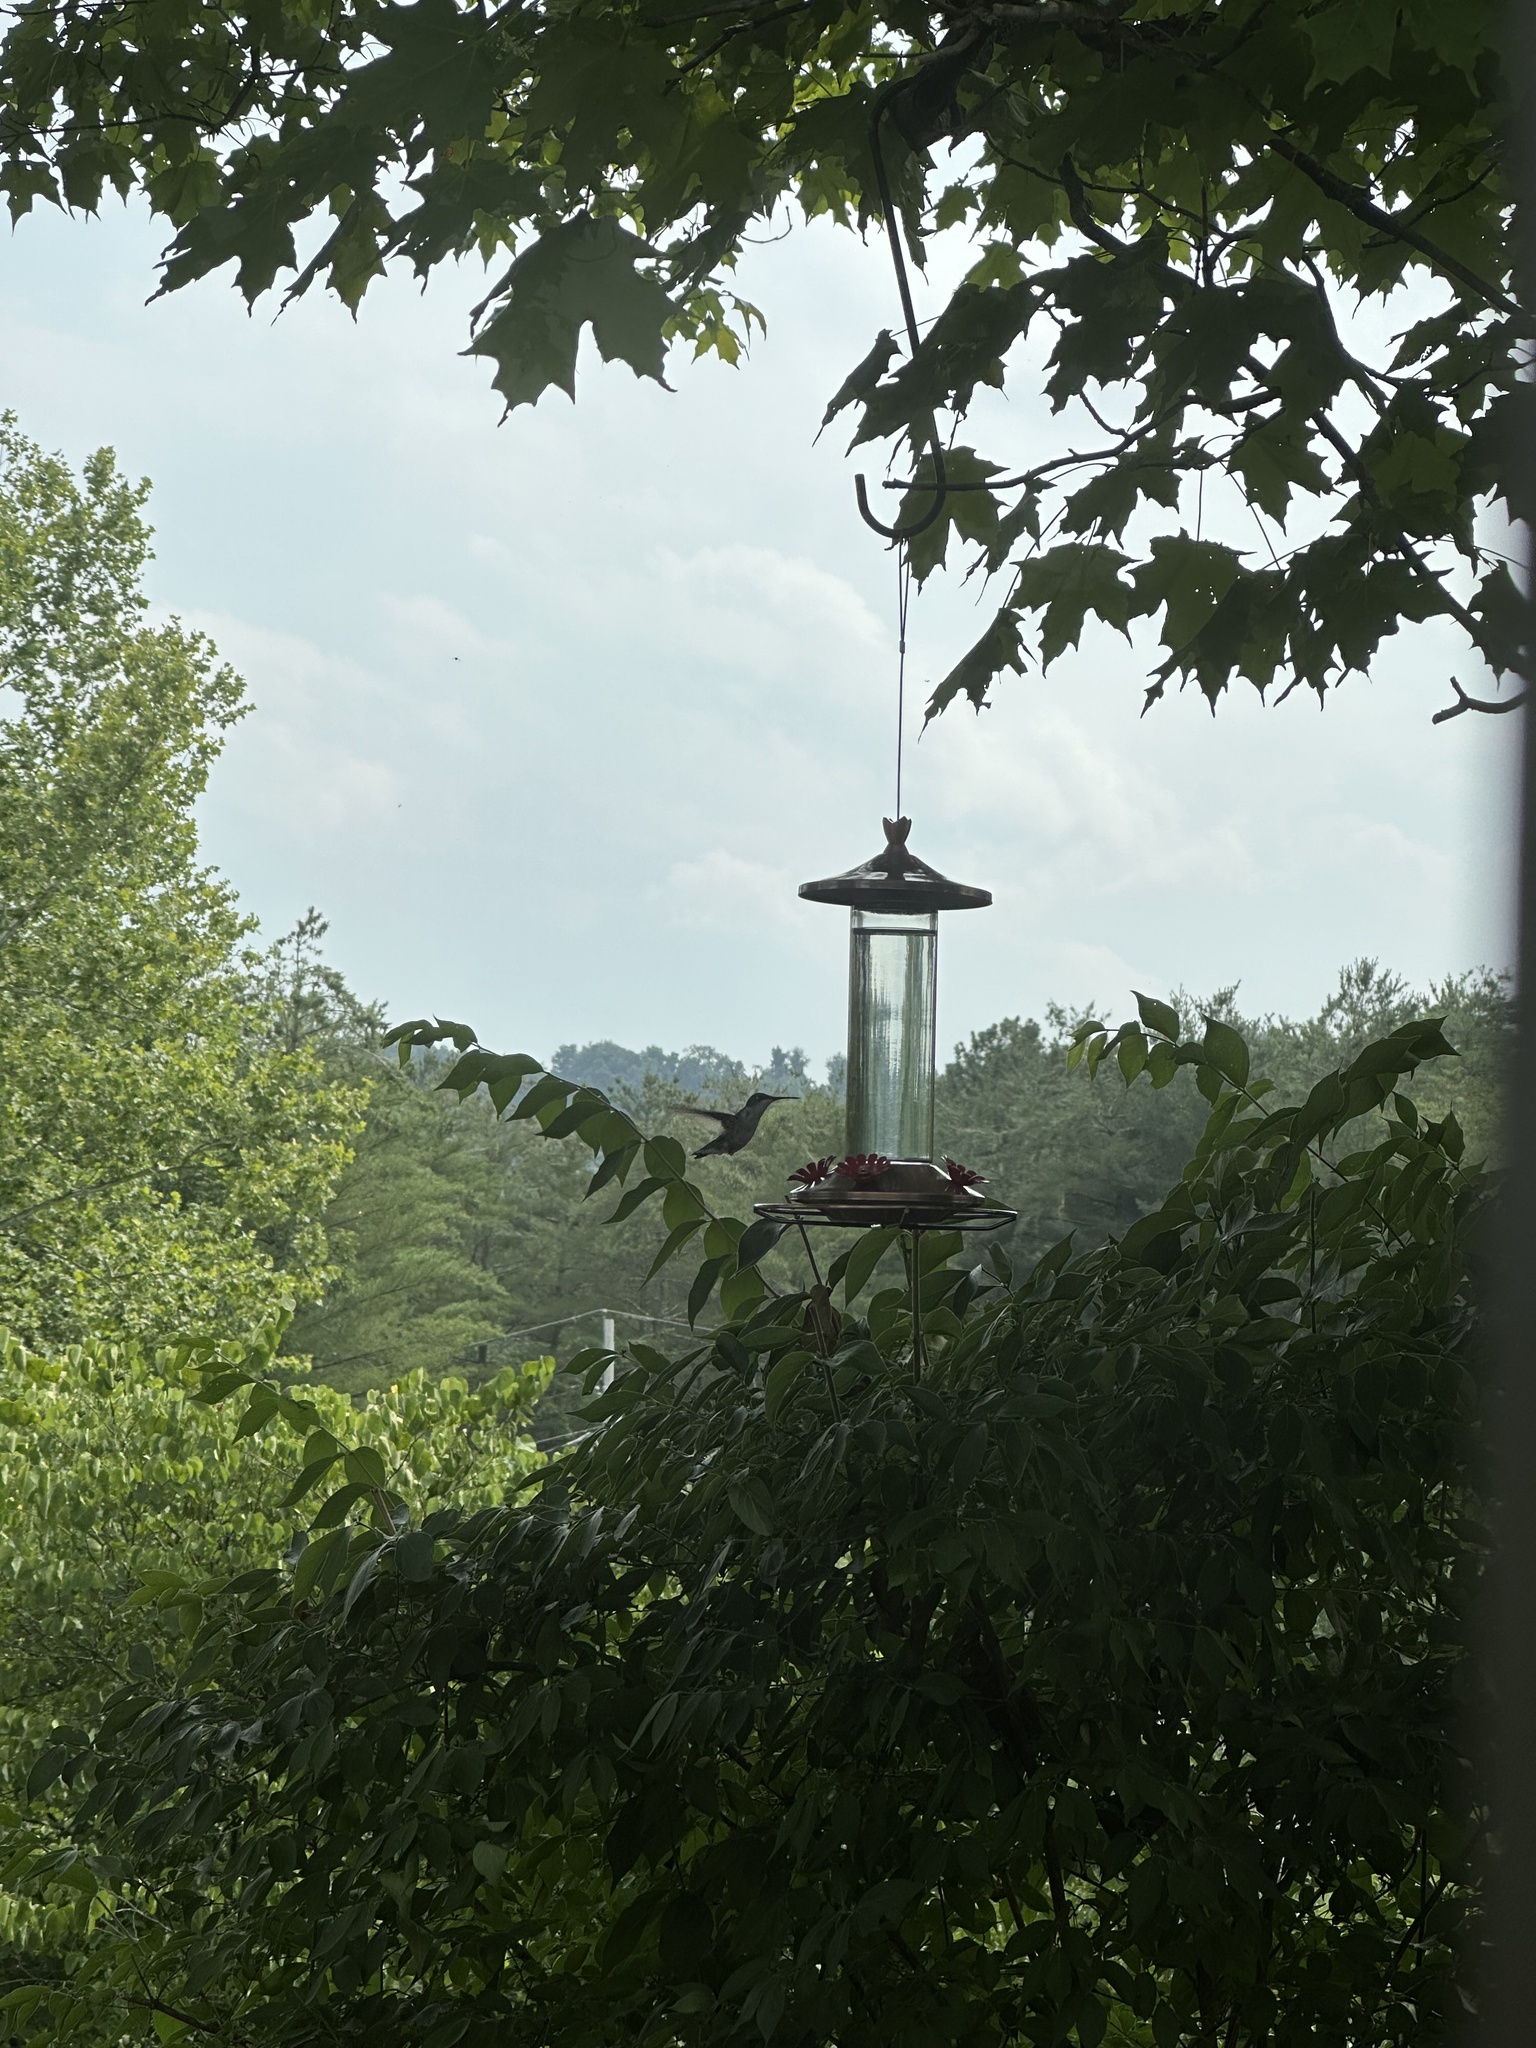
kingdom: Animalia
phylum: Chordata
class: Aves
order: Apodiformes
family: Trochilidae
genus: Archilochus
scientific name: Archilochus colubris
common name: Ruby-throated hummingbird
